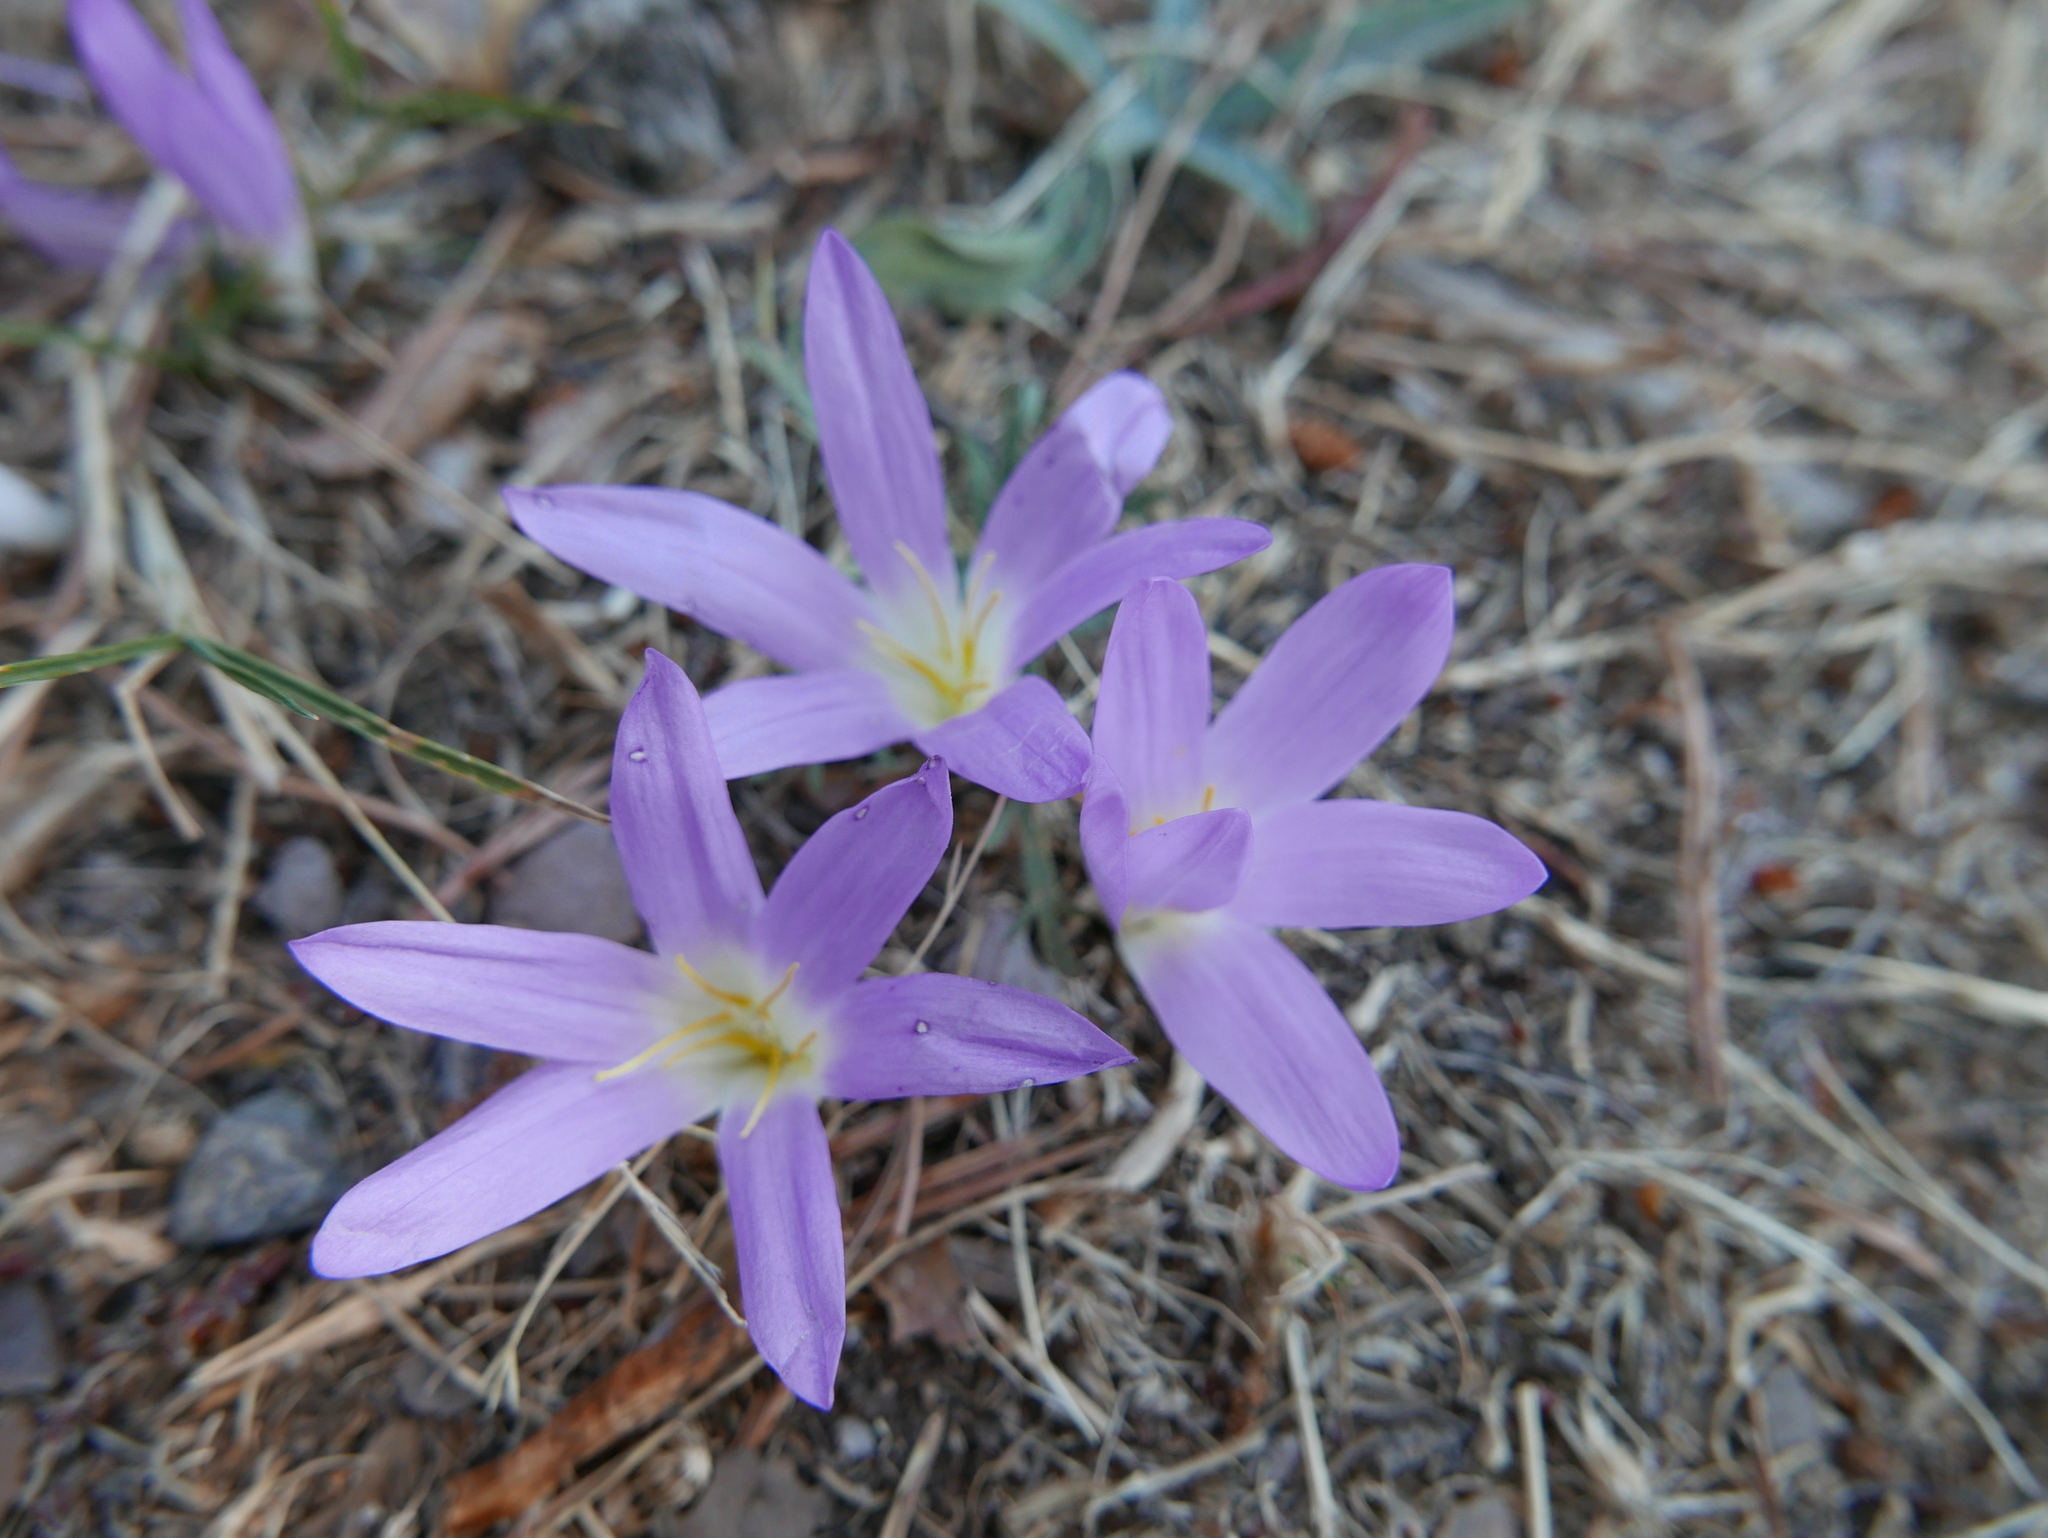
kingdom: Plantae
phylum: Tracheophyta
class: Liliopsida
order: Liliales
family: Colchicaceae
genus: Colchicum
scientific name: Colchicum montanum
